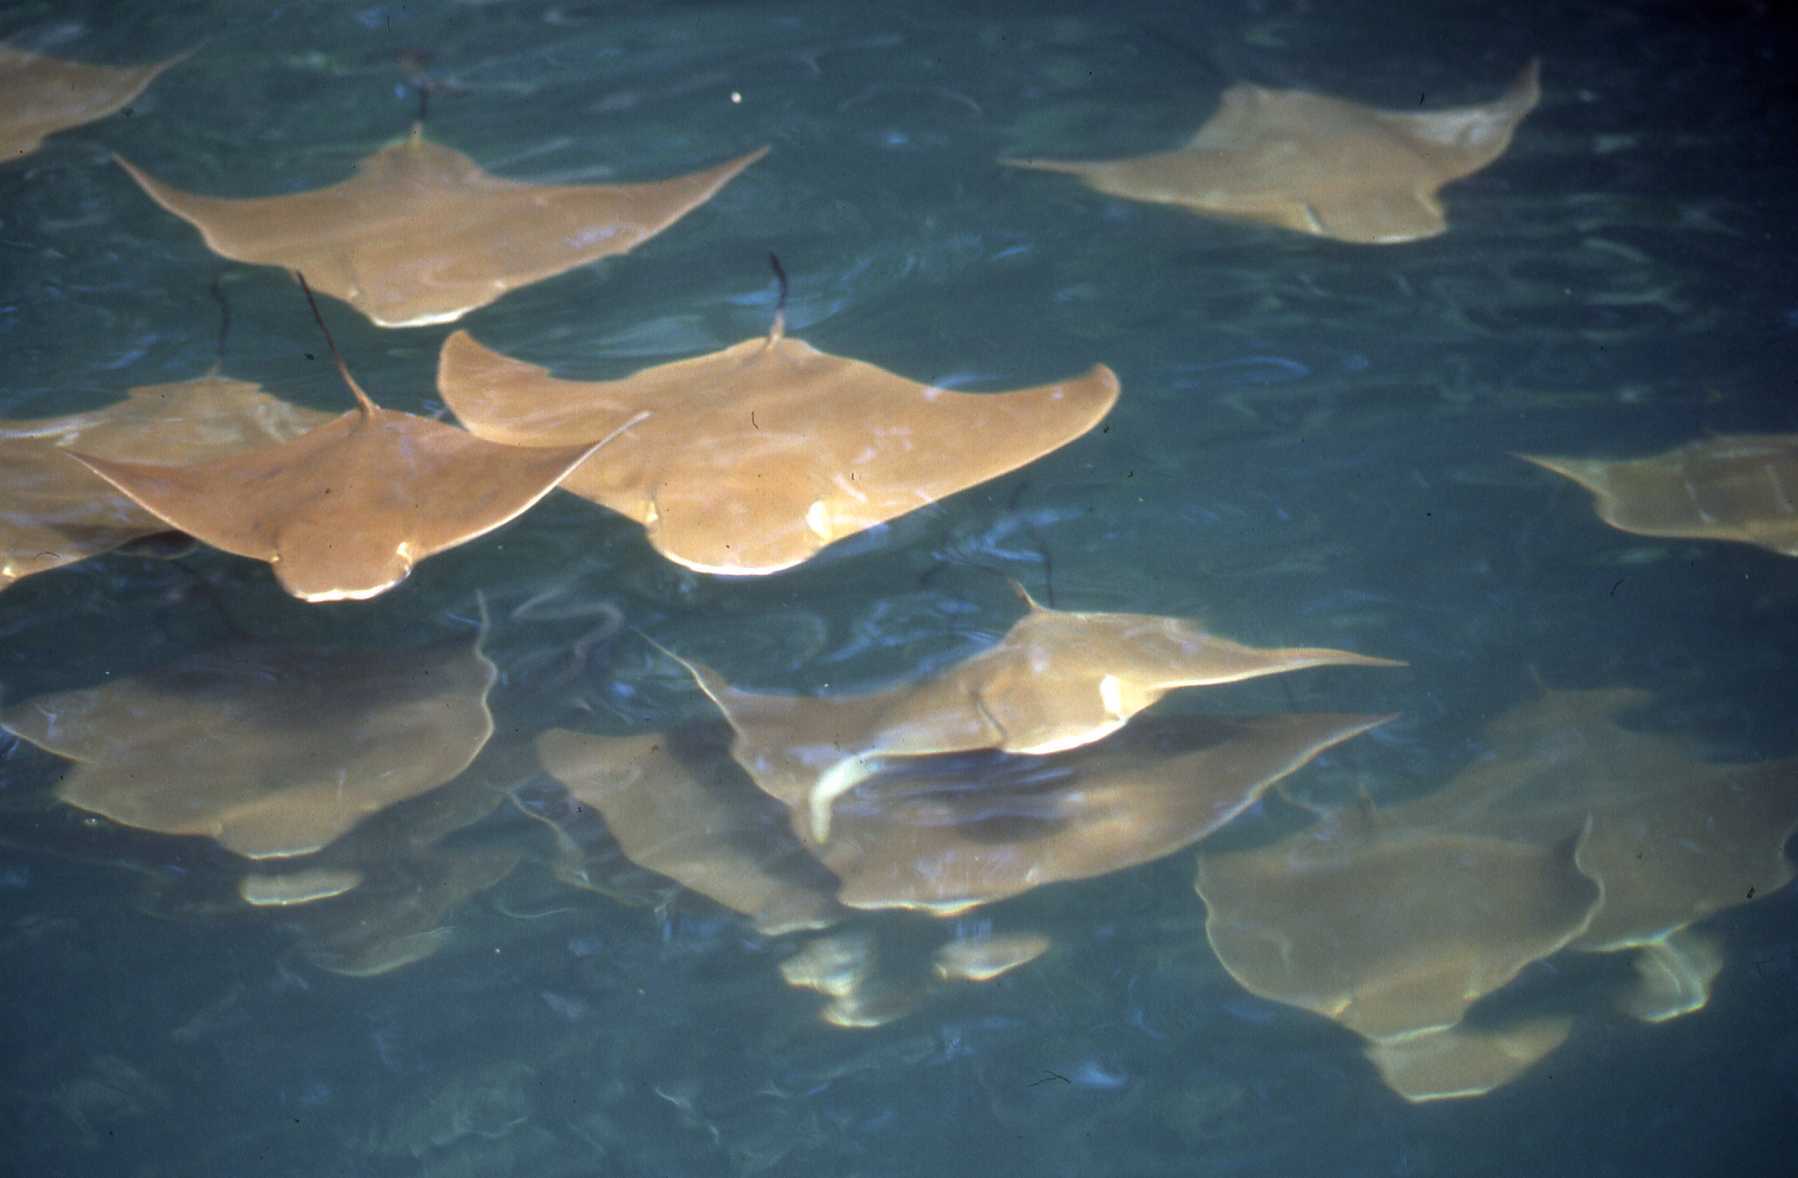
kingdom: Animalia
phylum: Chordata
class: Elasmobranchii
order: Myliobatiformes
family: Myliobatidae
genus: Rhinoptera
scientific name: Rhinoptera steindachneri
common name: Golden cownose ray
